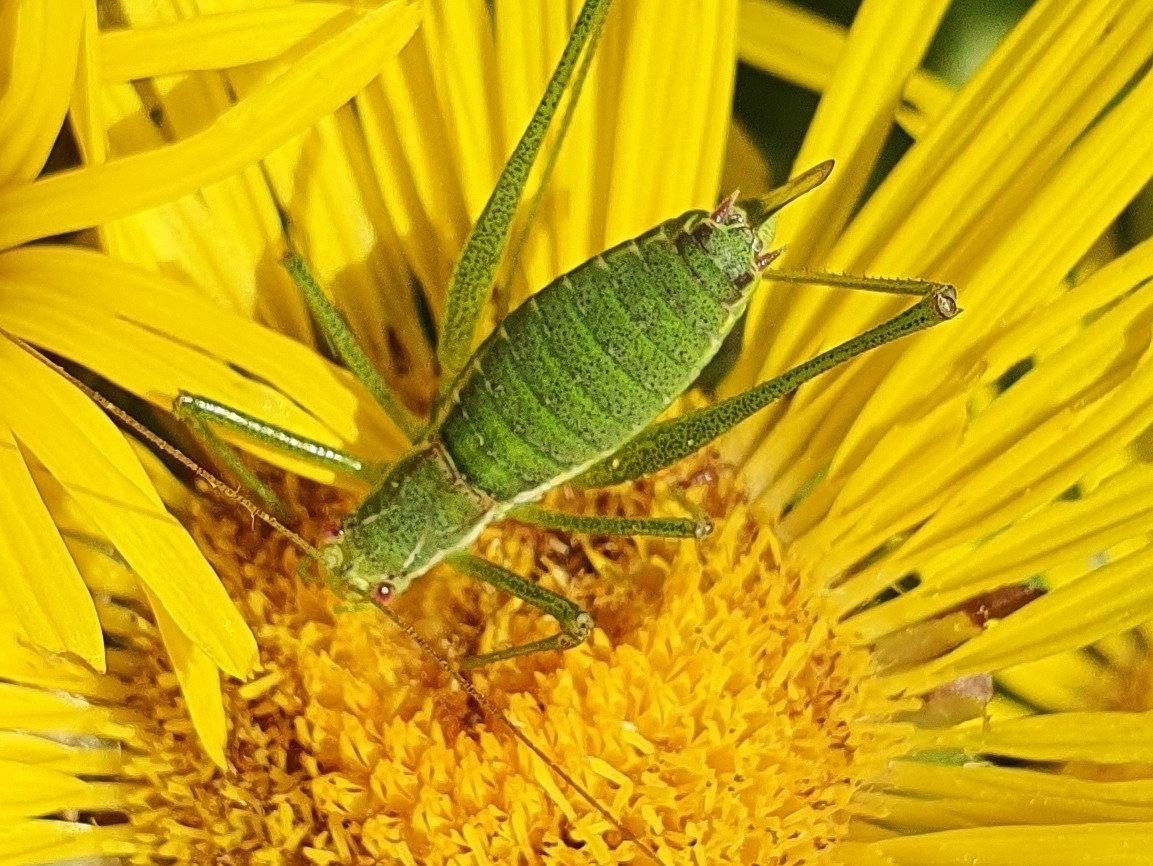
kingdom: Animalia
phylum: Arthropoda
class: Insecta
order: Orthoptera
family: Tettigoniidae
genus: Leptophyes
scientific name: Leptophyes albovittata
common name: Striped bush-cricket
